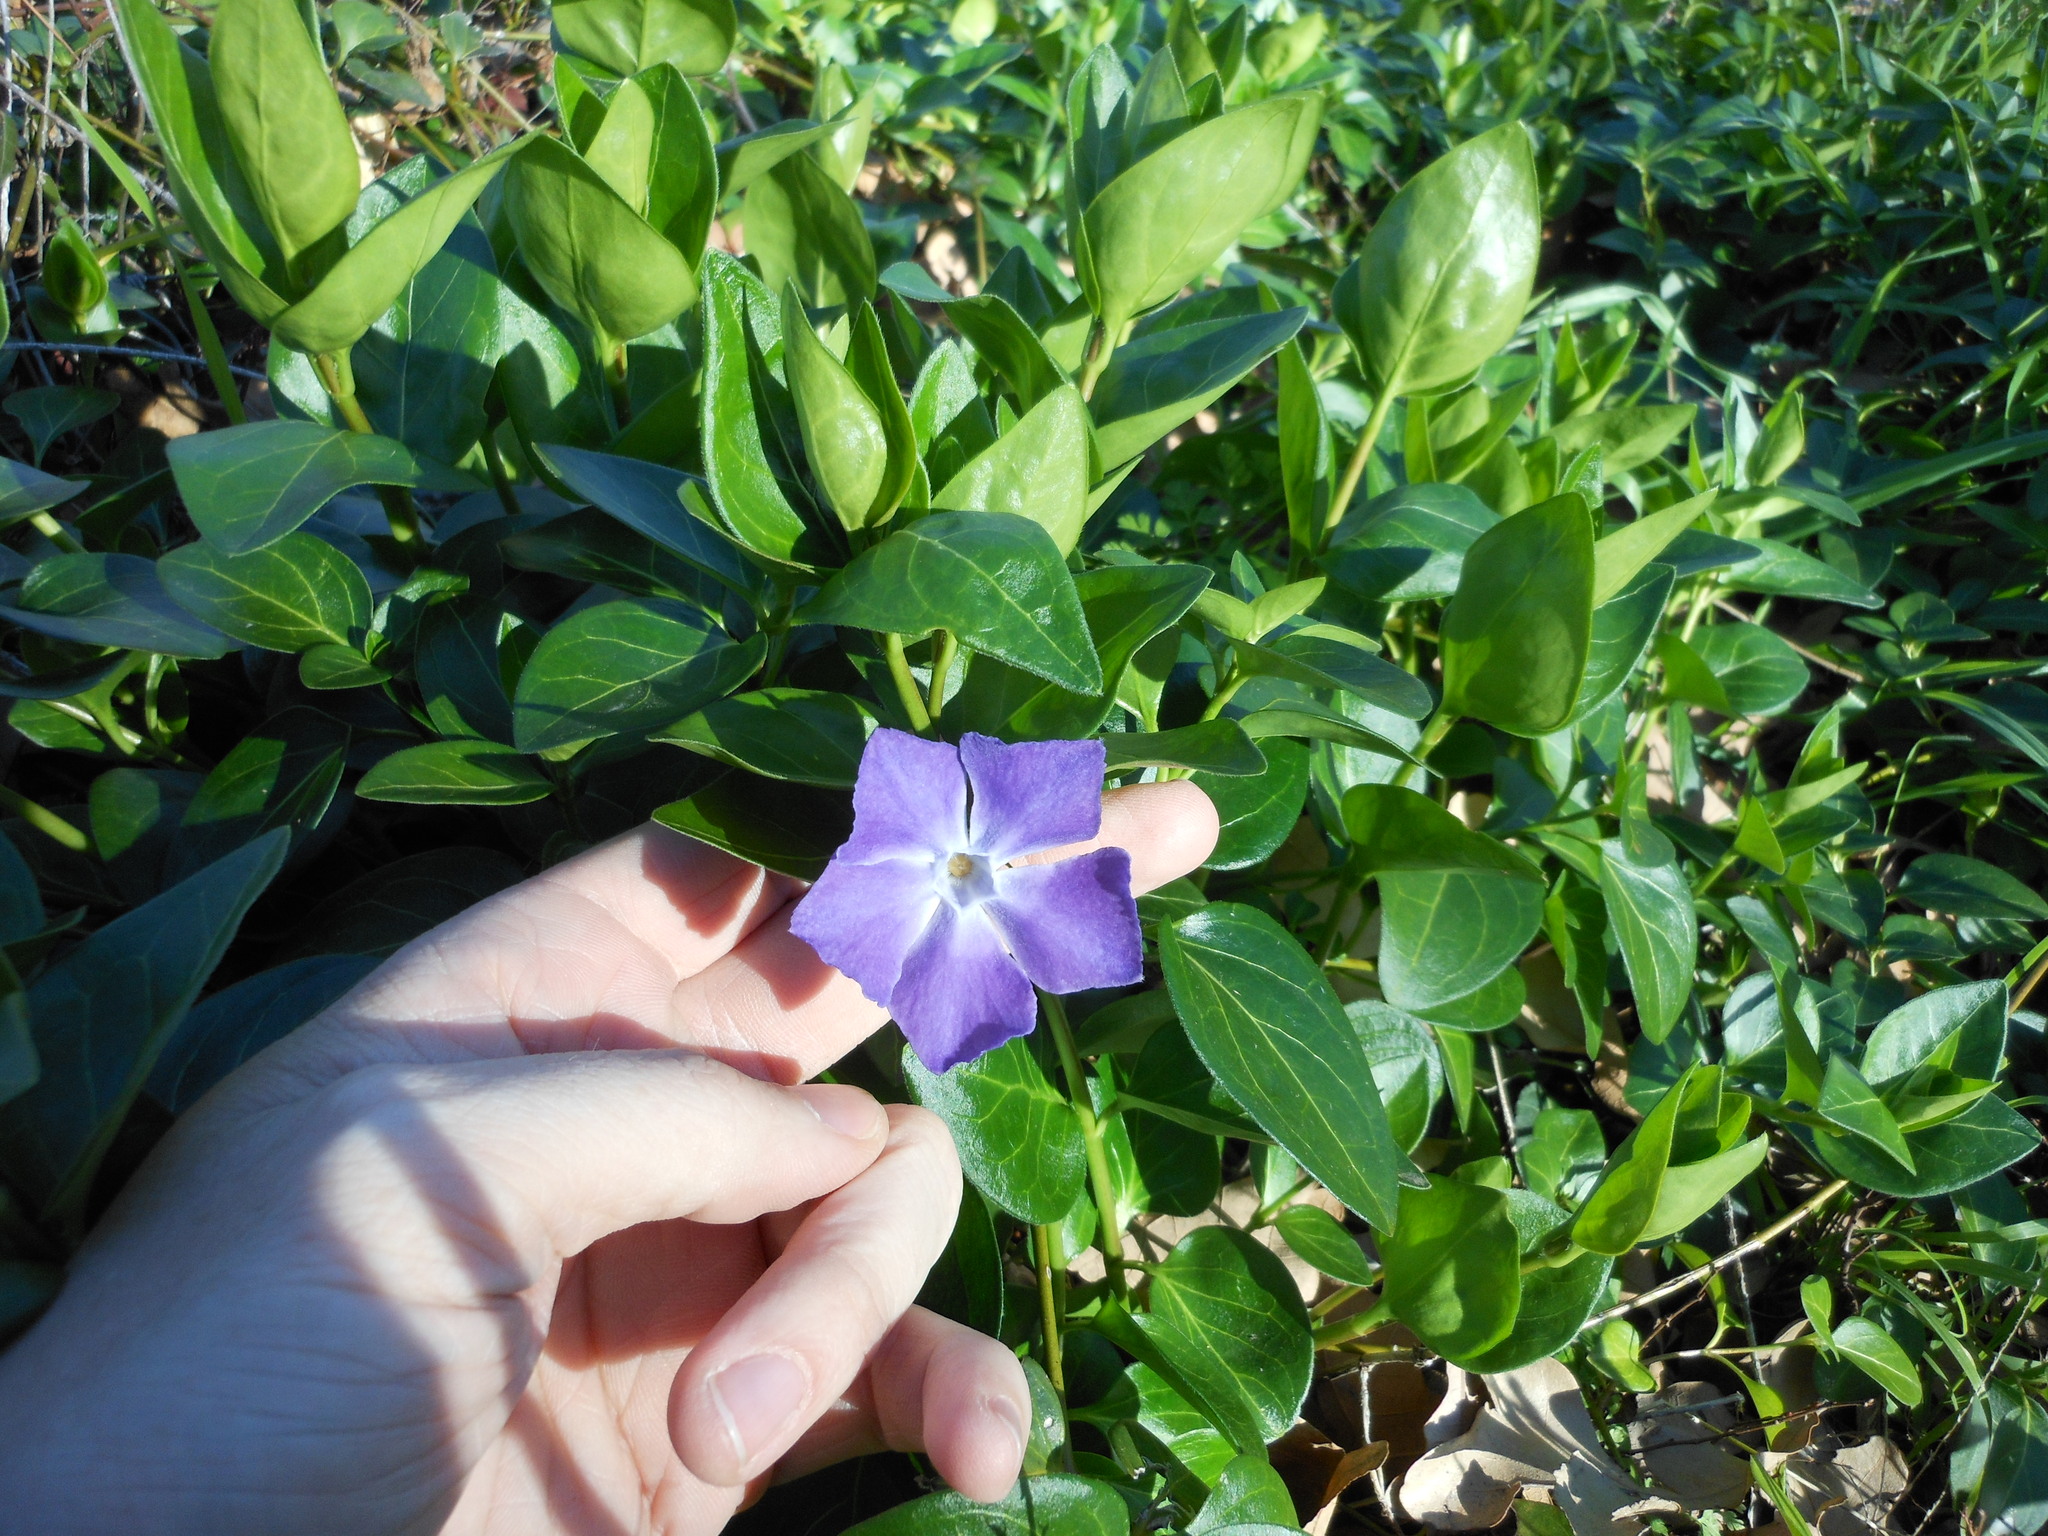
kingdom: Plantae
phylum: Tracheophyta
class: Magnoliopsida
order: Gentianales
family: Apocynaceae
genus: Vinca
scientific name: Vinca major
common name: Greater periwinkle
